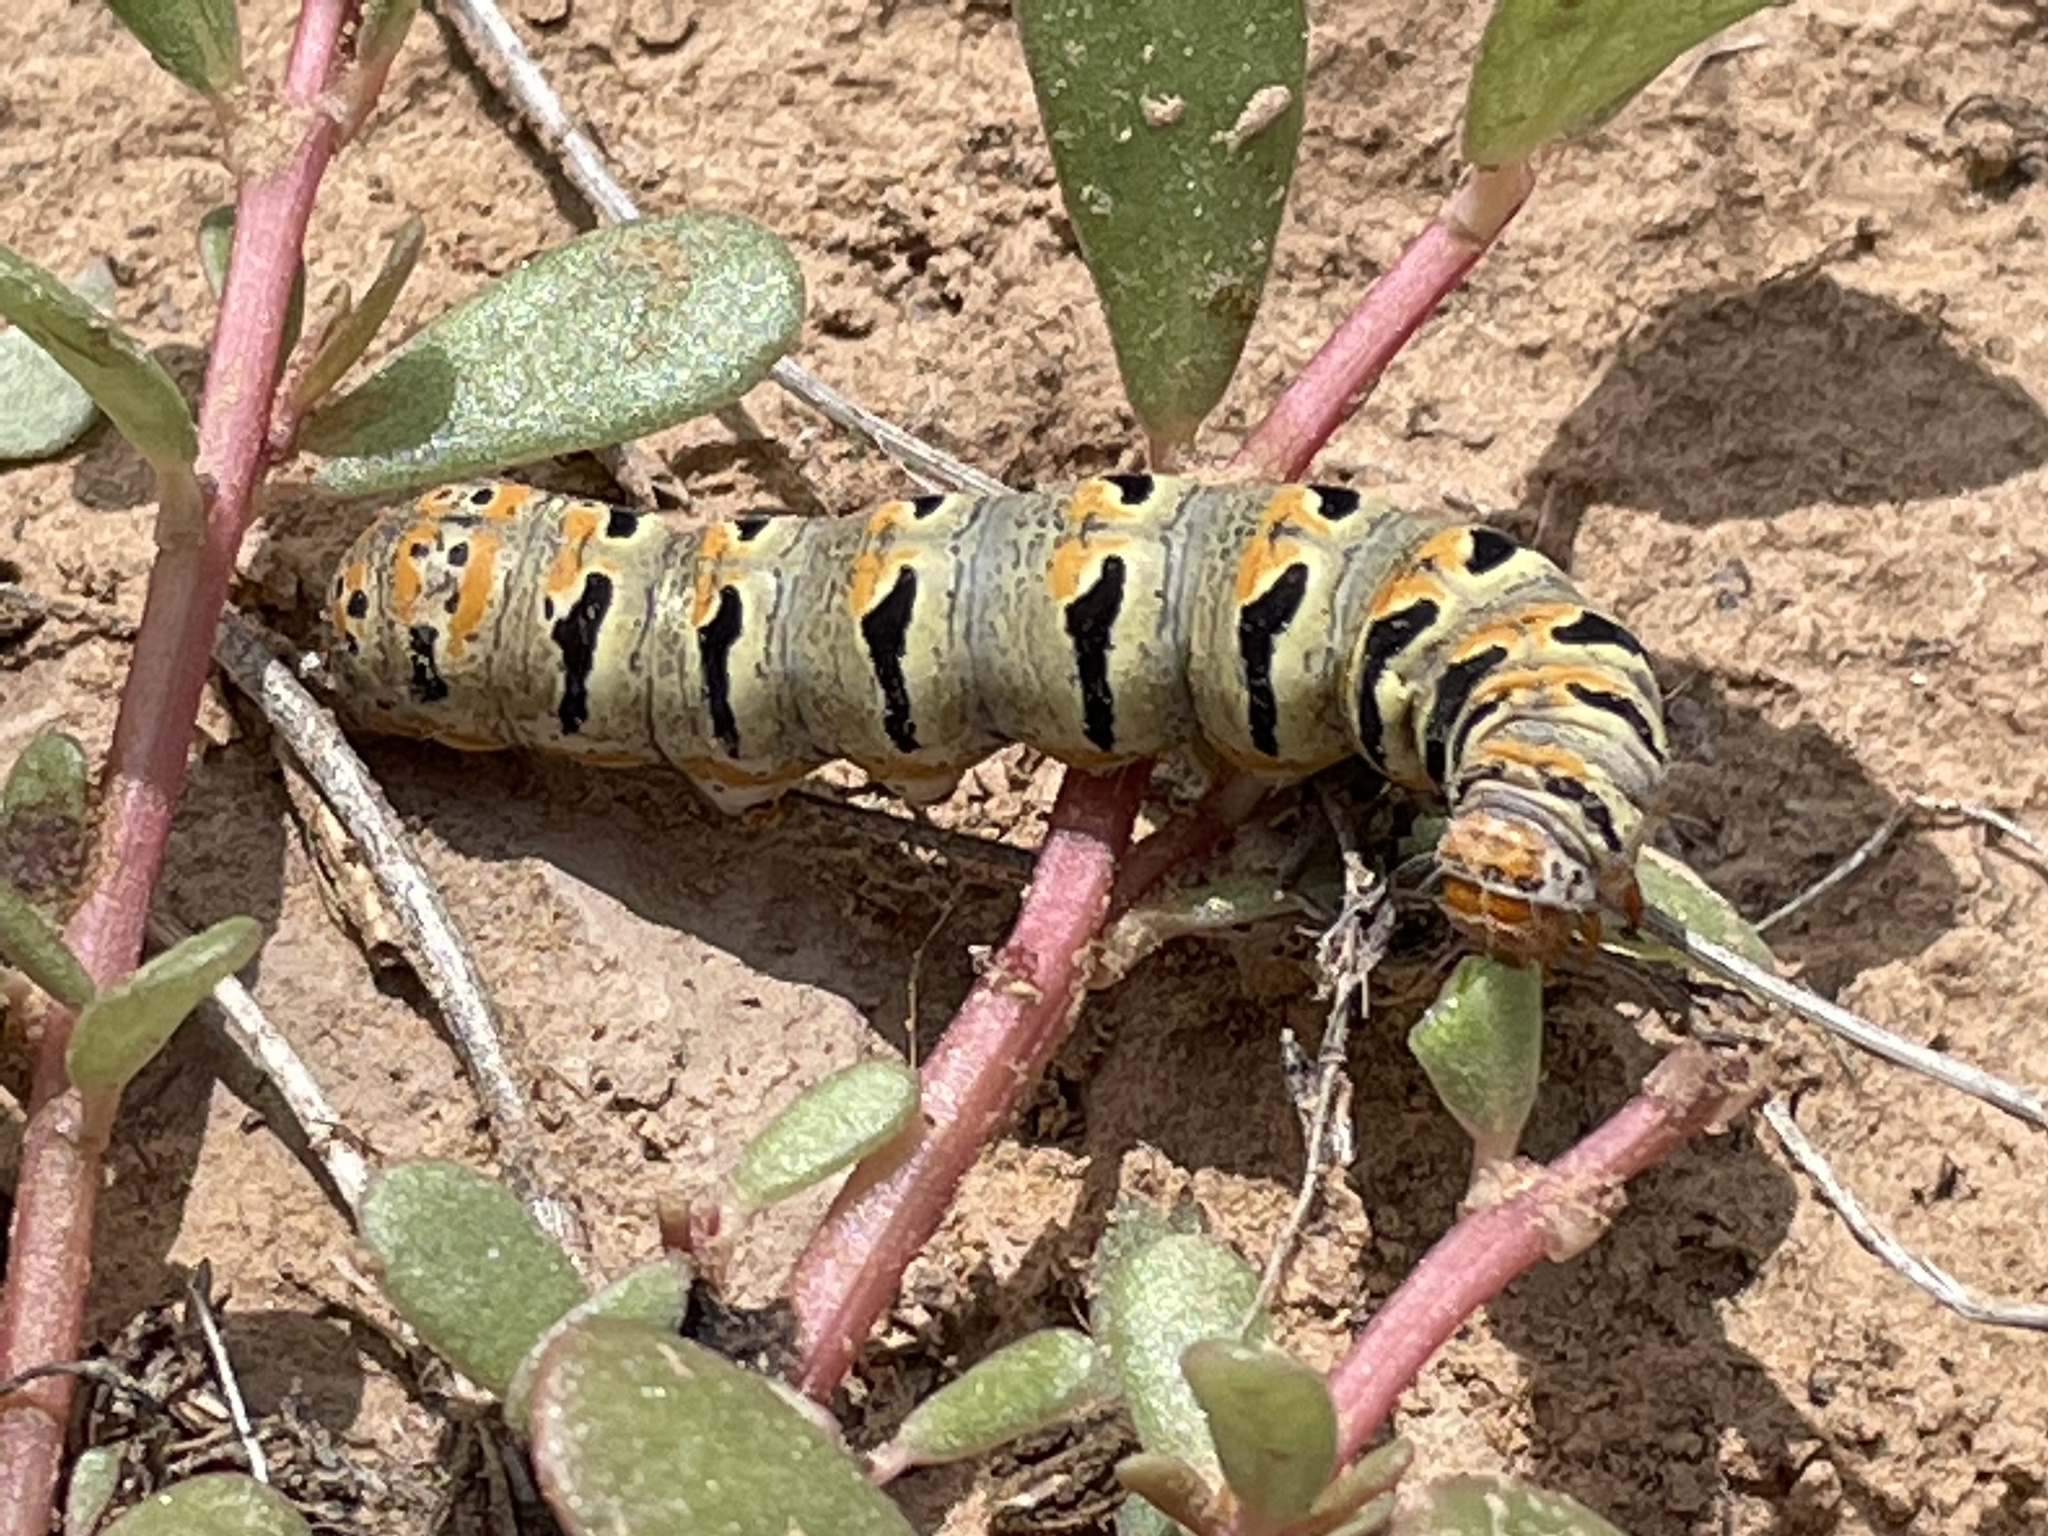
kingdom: Animalia
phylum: Arthropoda
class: Insecta
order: Lepidoptera
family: Noctuidae
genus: Euscirrhopterus
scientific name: Euscirrhopterus gloveri
